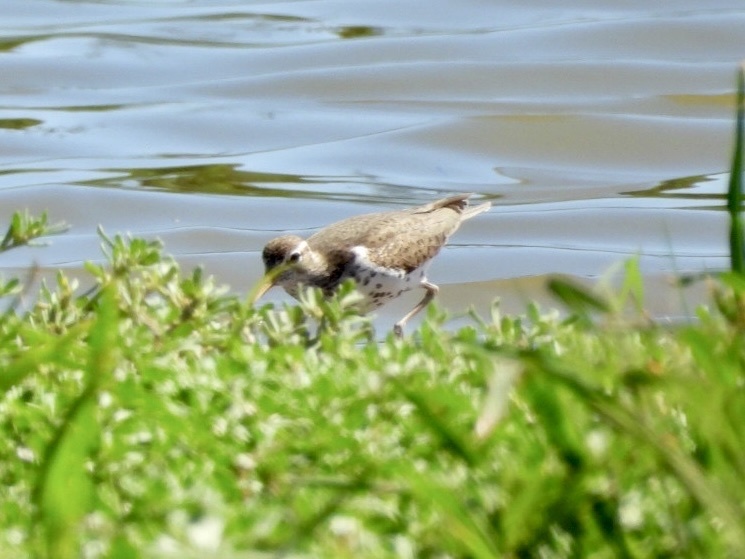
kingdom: Animalia
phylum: Chordata
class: Aves
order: Charadriiformes
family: Scolopacidae
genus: Actitis
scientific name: Actitis macularius
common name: Spotted sandpiper
